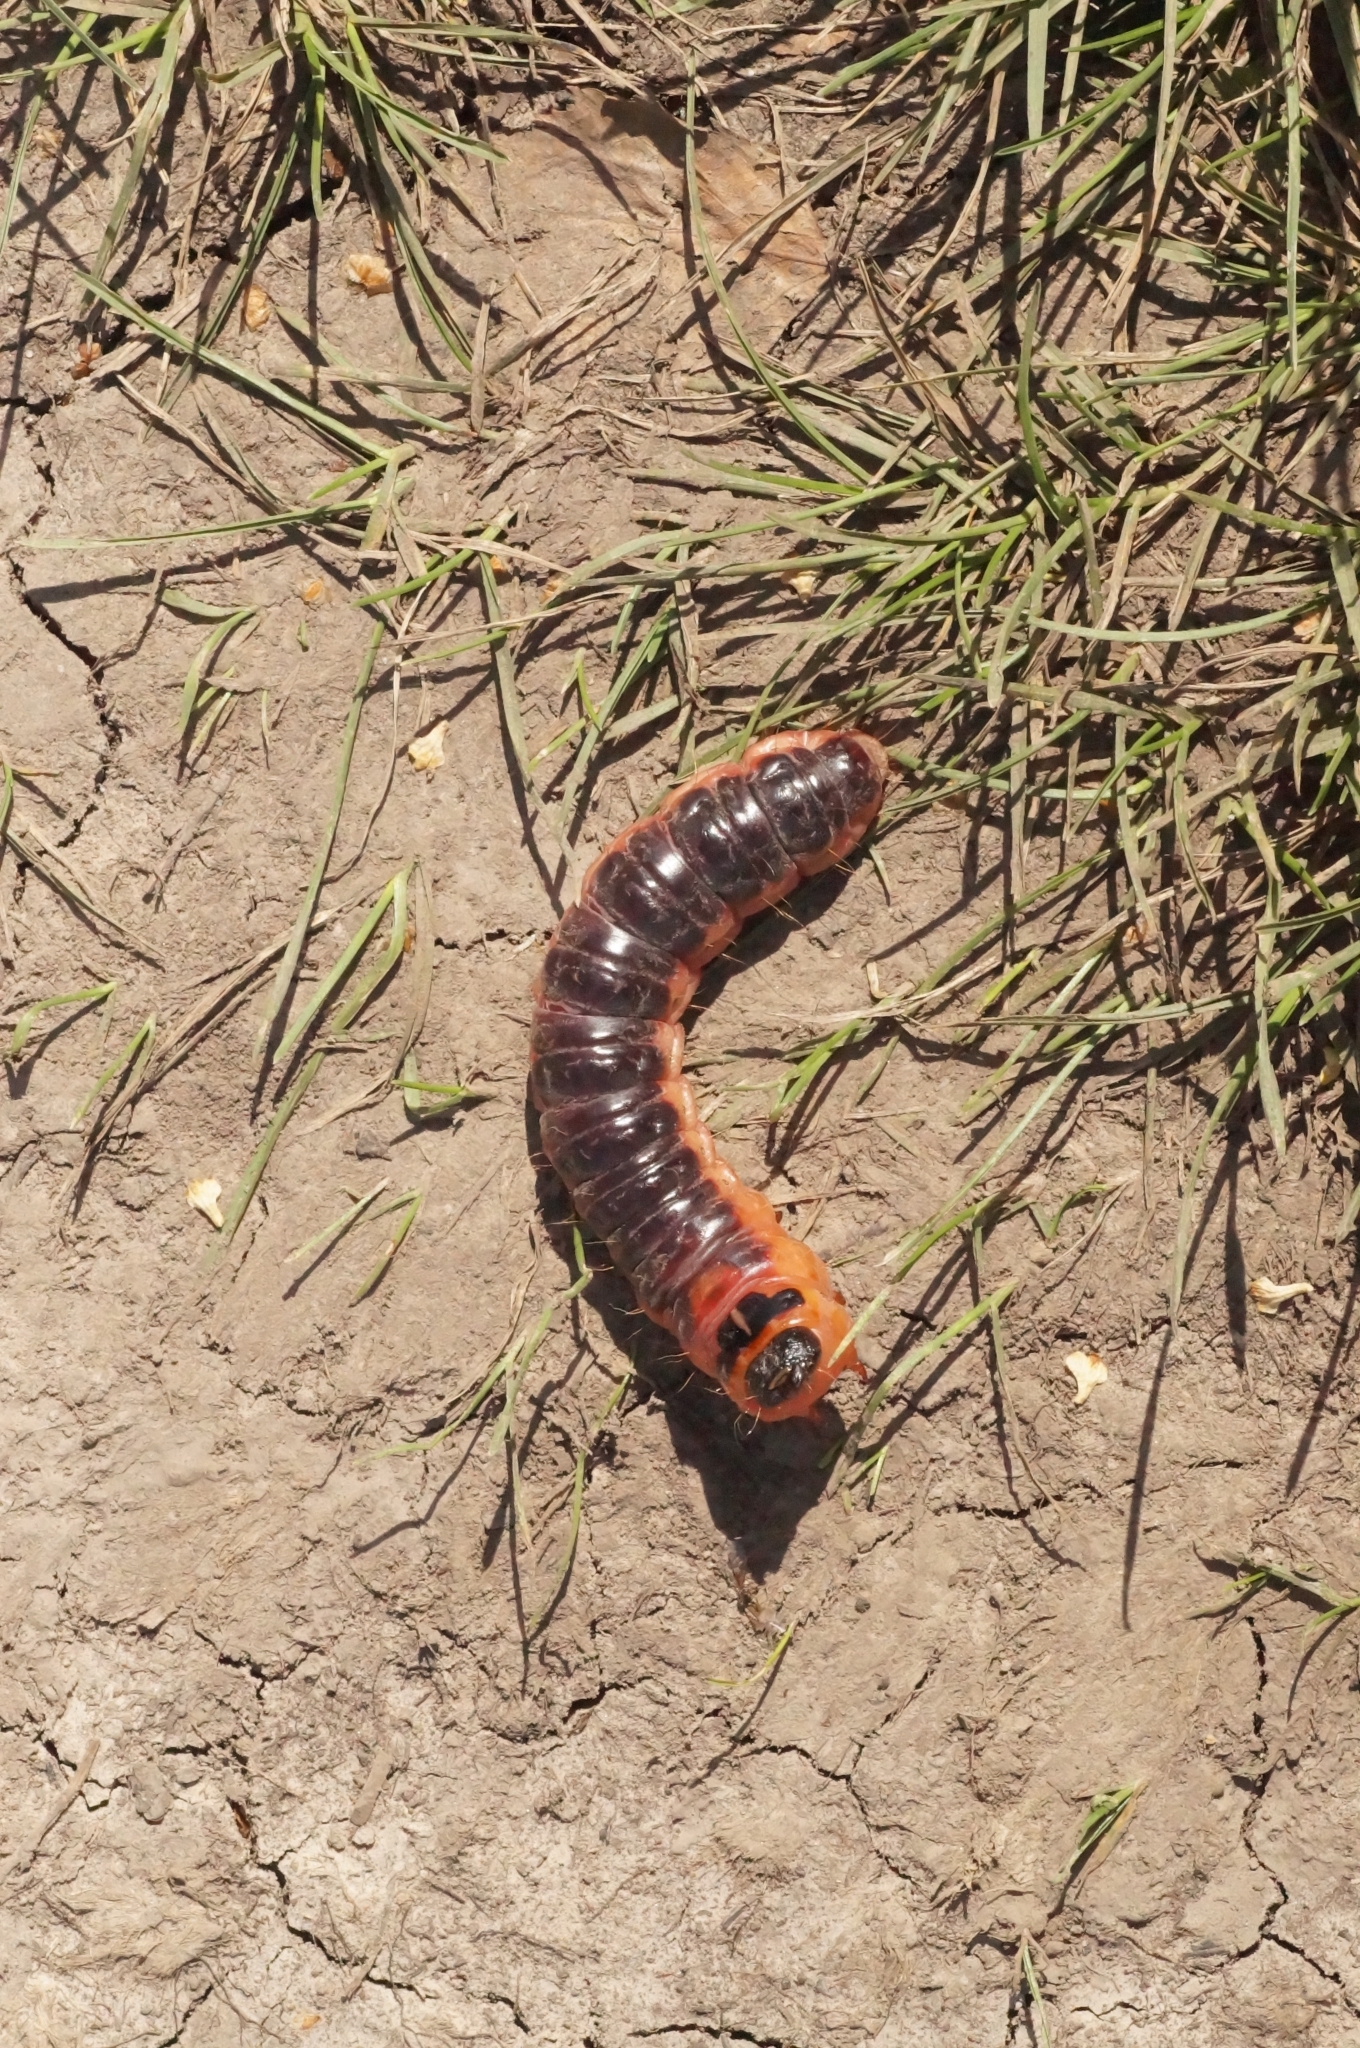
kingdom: Animalia
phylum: Arthropoda
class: Insecta
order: Lepidoptera
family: Cossidae
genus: Cossus
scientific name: Cossus cossus
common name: Goat moth
